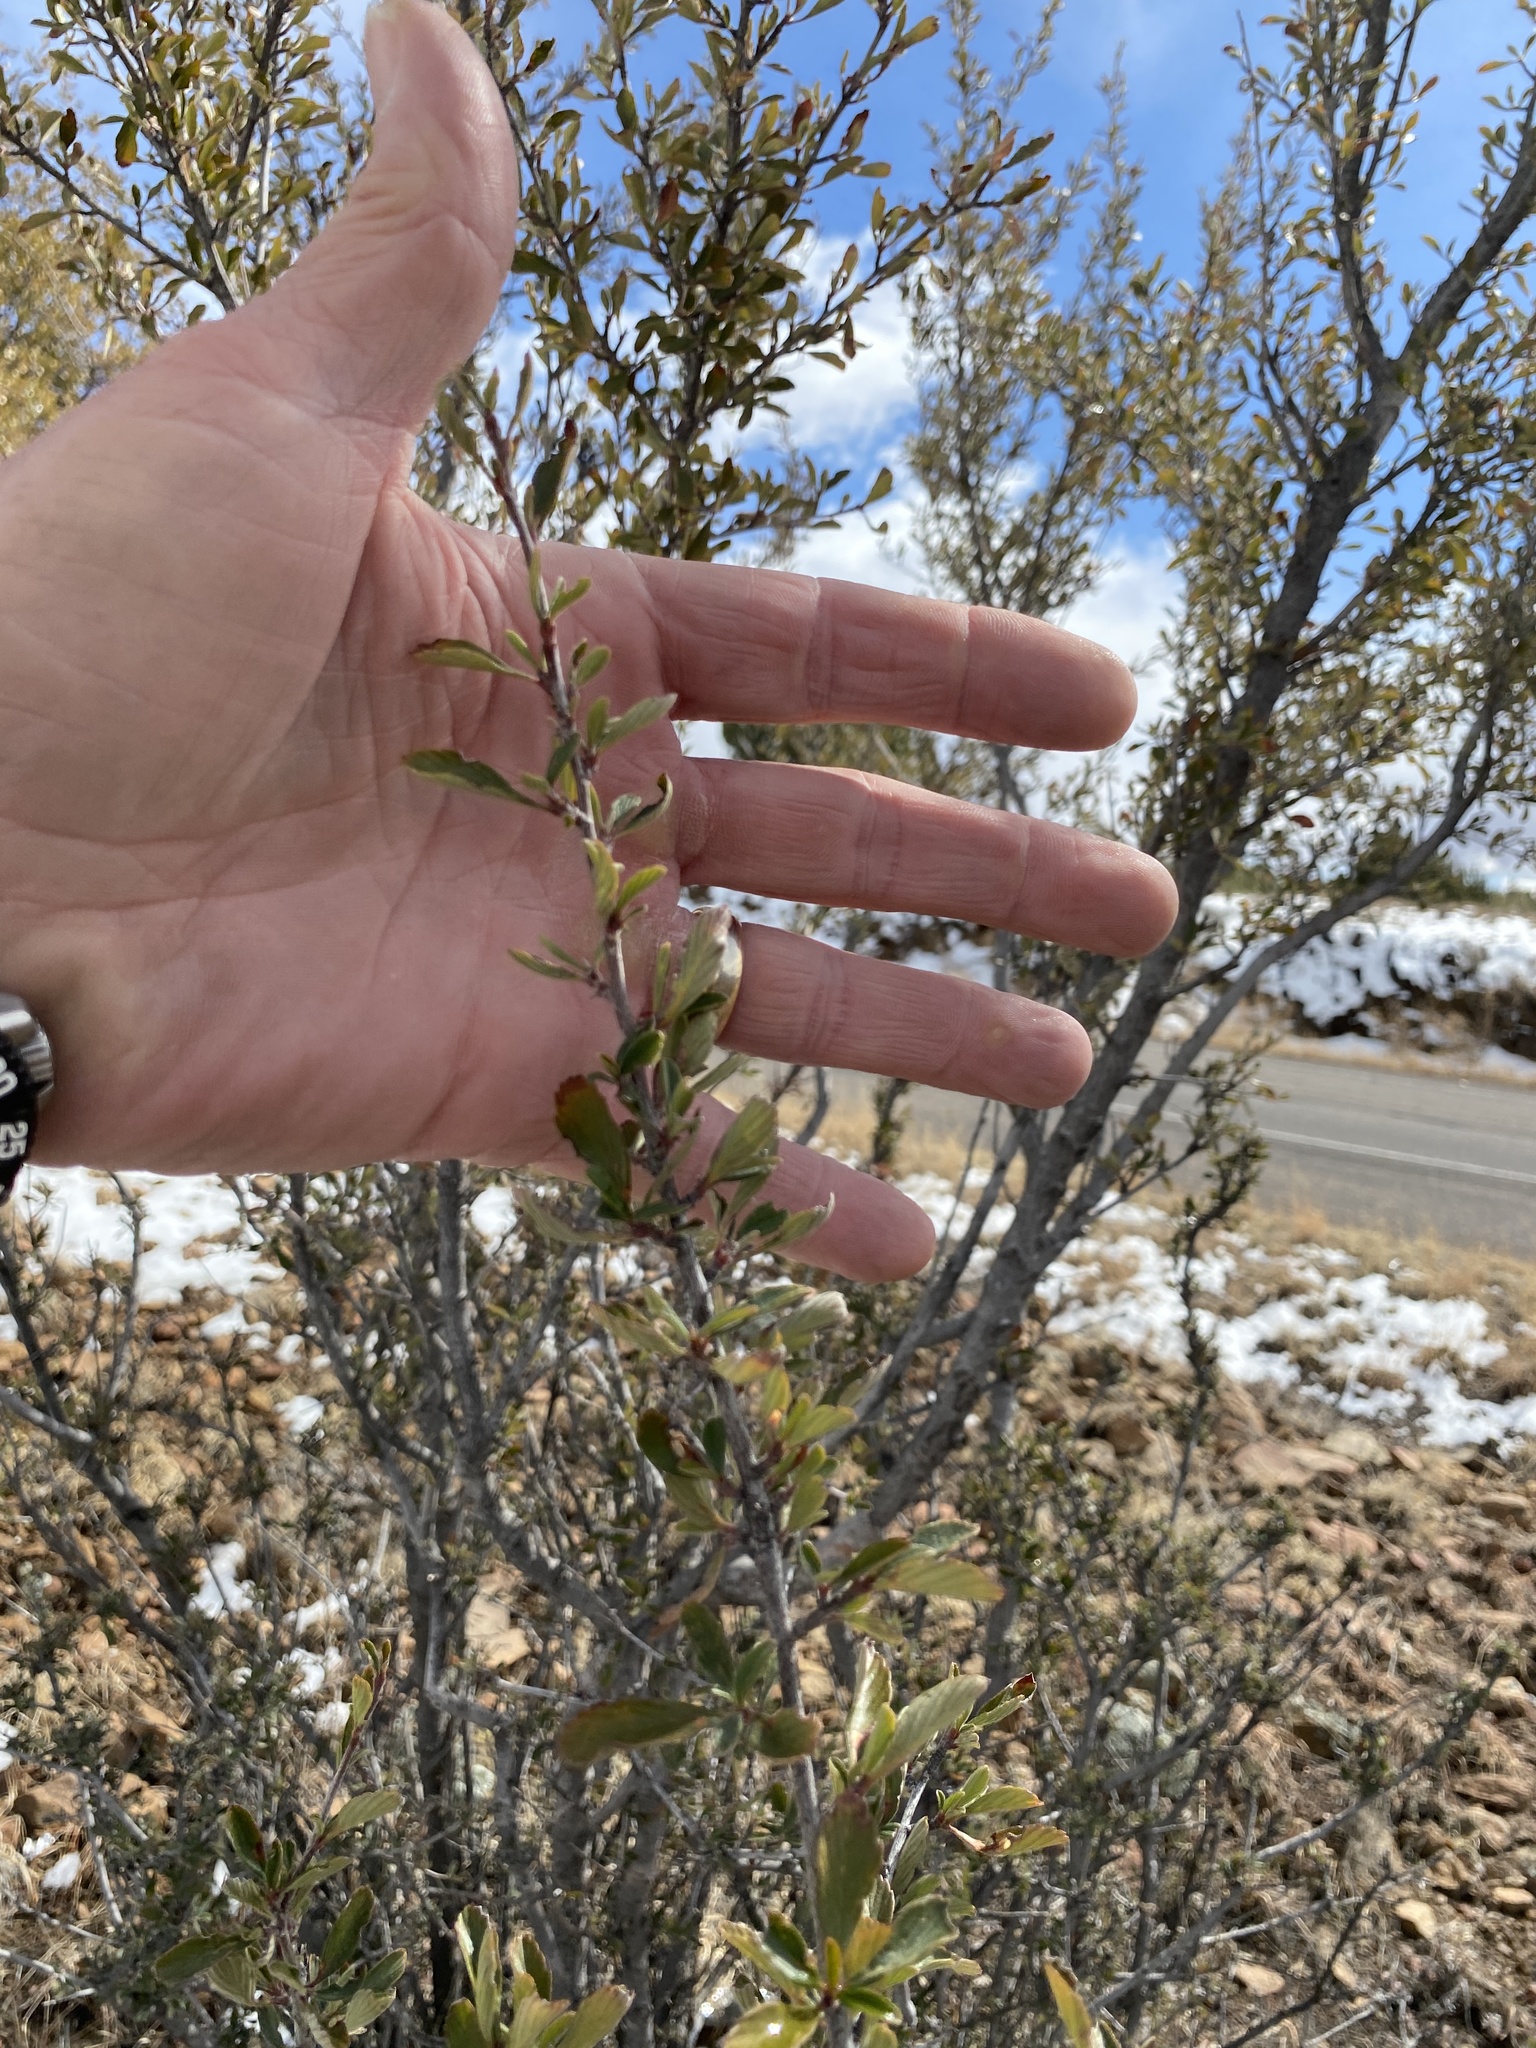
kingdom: Plantae
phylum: Tracheophyta
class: Magnoliopsida
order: Rosales
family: Rosaceae
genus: Cercocarpus
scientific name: Cercocarpus breviflorus
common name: Wright's mountain-mahogany
